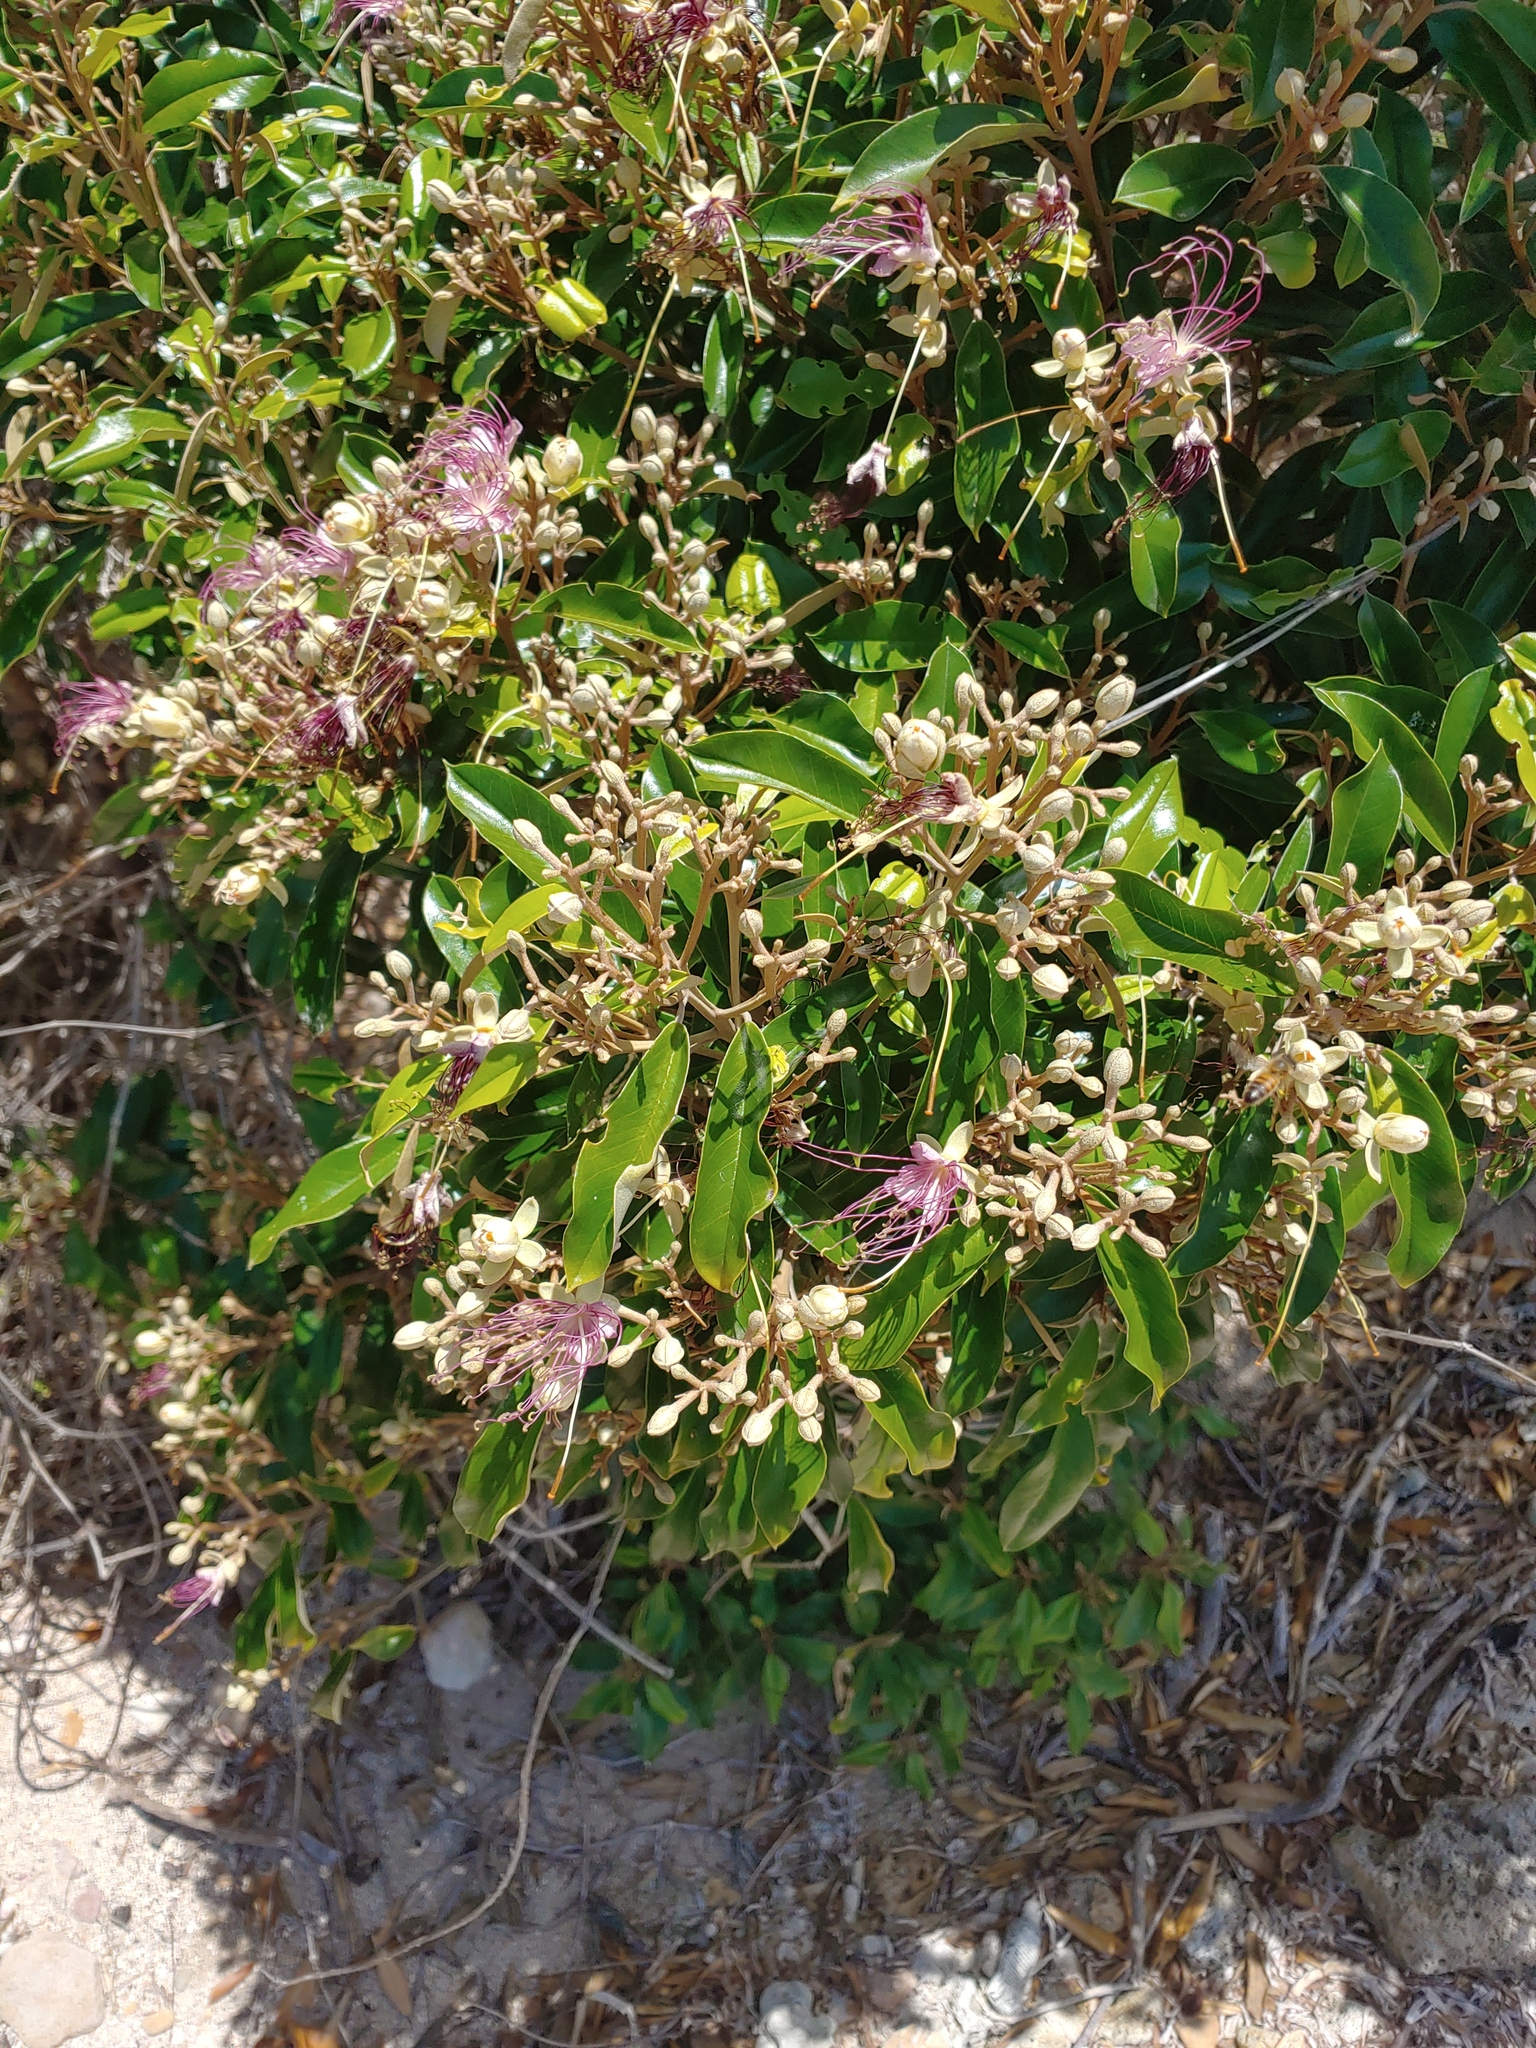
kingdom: Plantae
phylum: Tracheophyta
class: Magnoliopsida
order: Brassicales
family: Capparaceae
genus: Quadrella
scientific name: Quadrella cynophallophora
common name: Black willow
